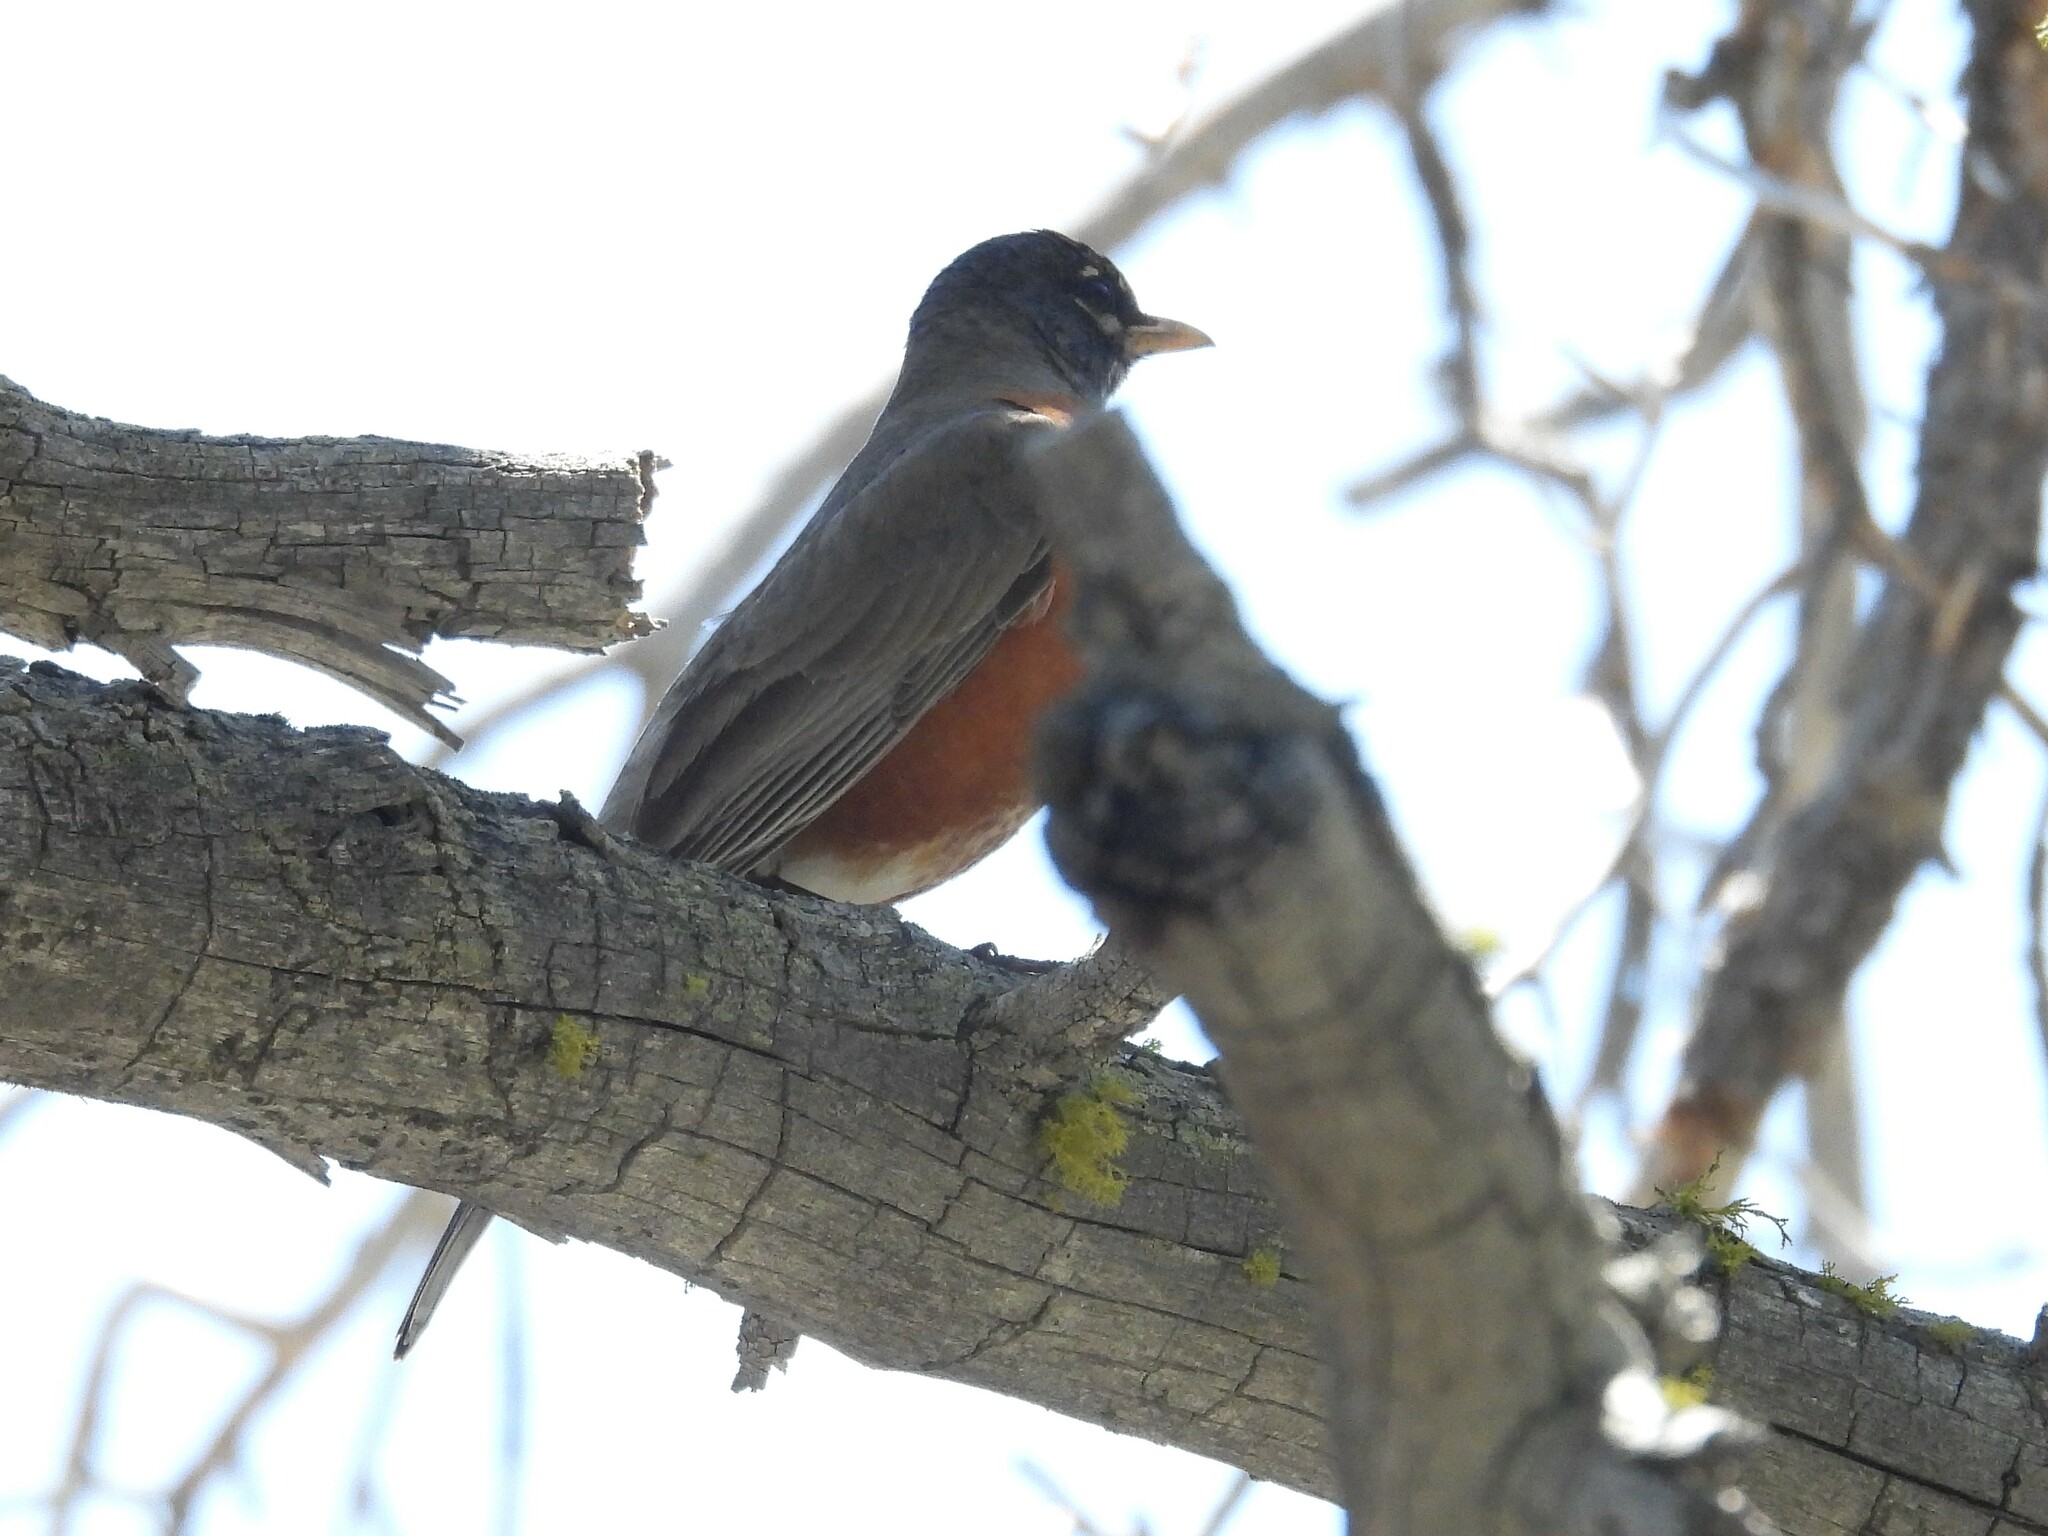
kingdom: Animalia
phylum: Chordata
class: Aves
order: Passeriformes
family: Turdidae
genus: Turdus
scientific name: Turdus migratorius
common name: American robin
